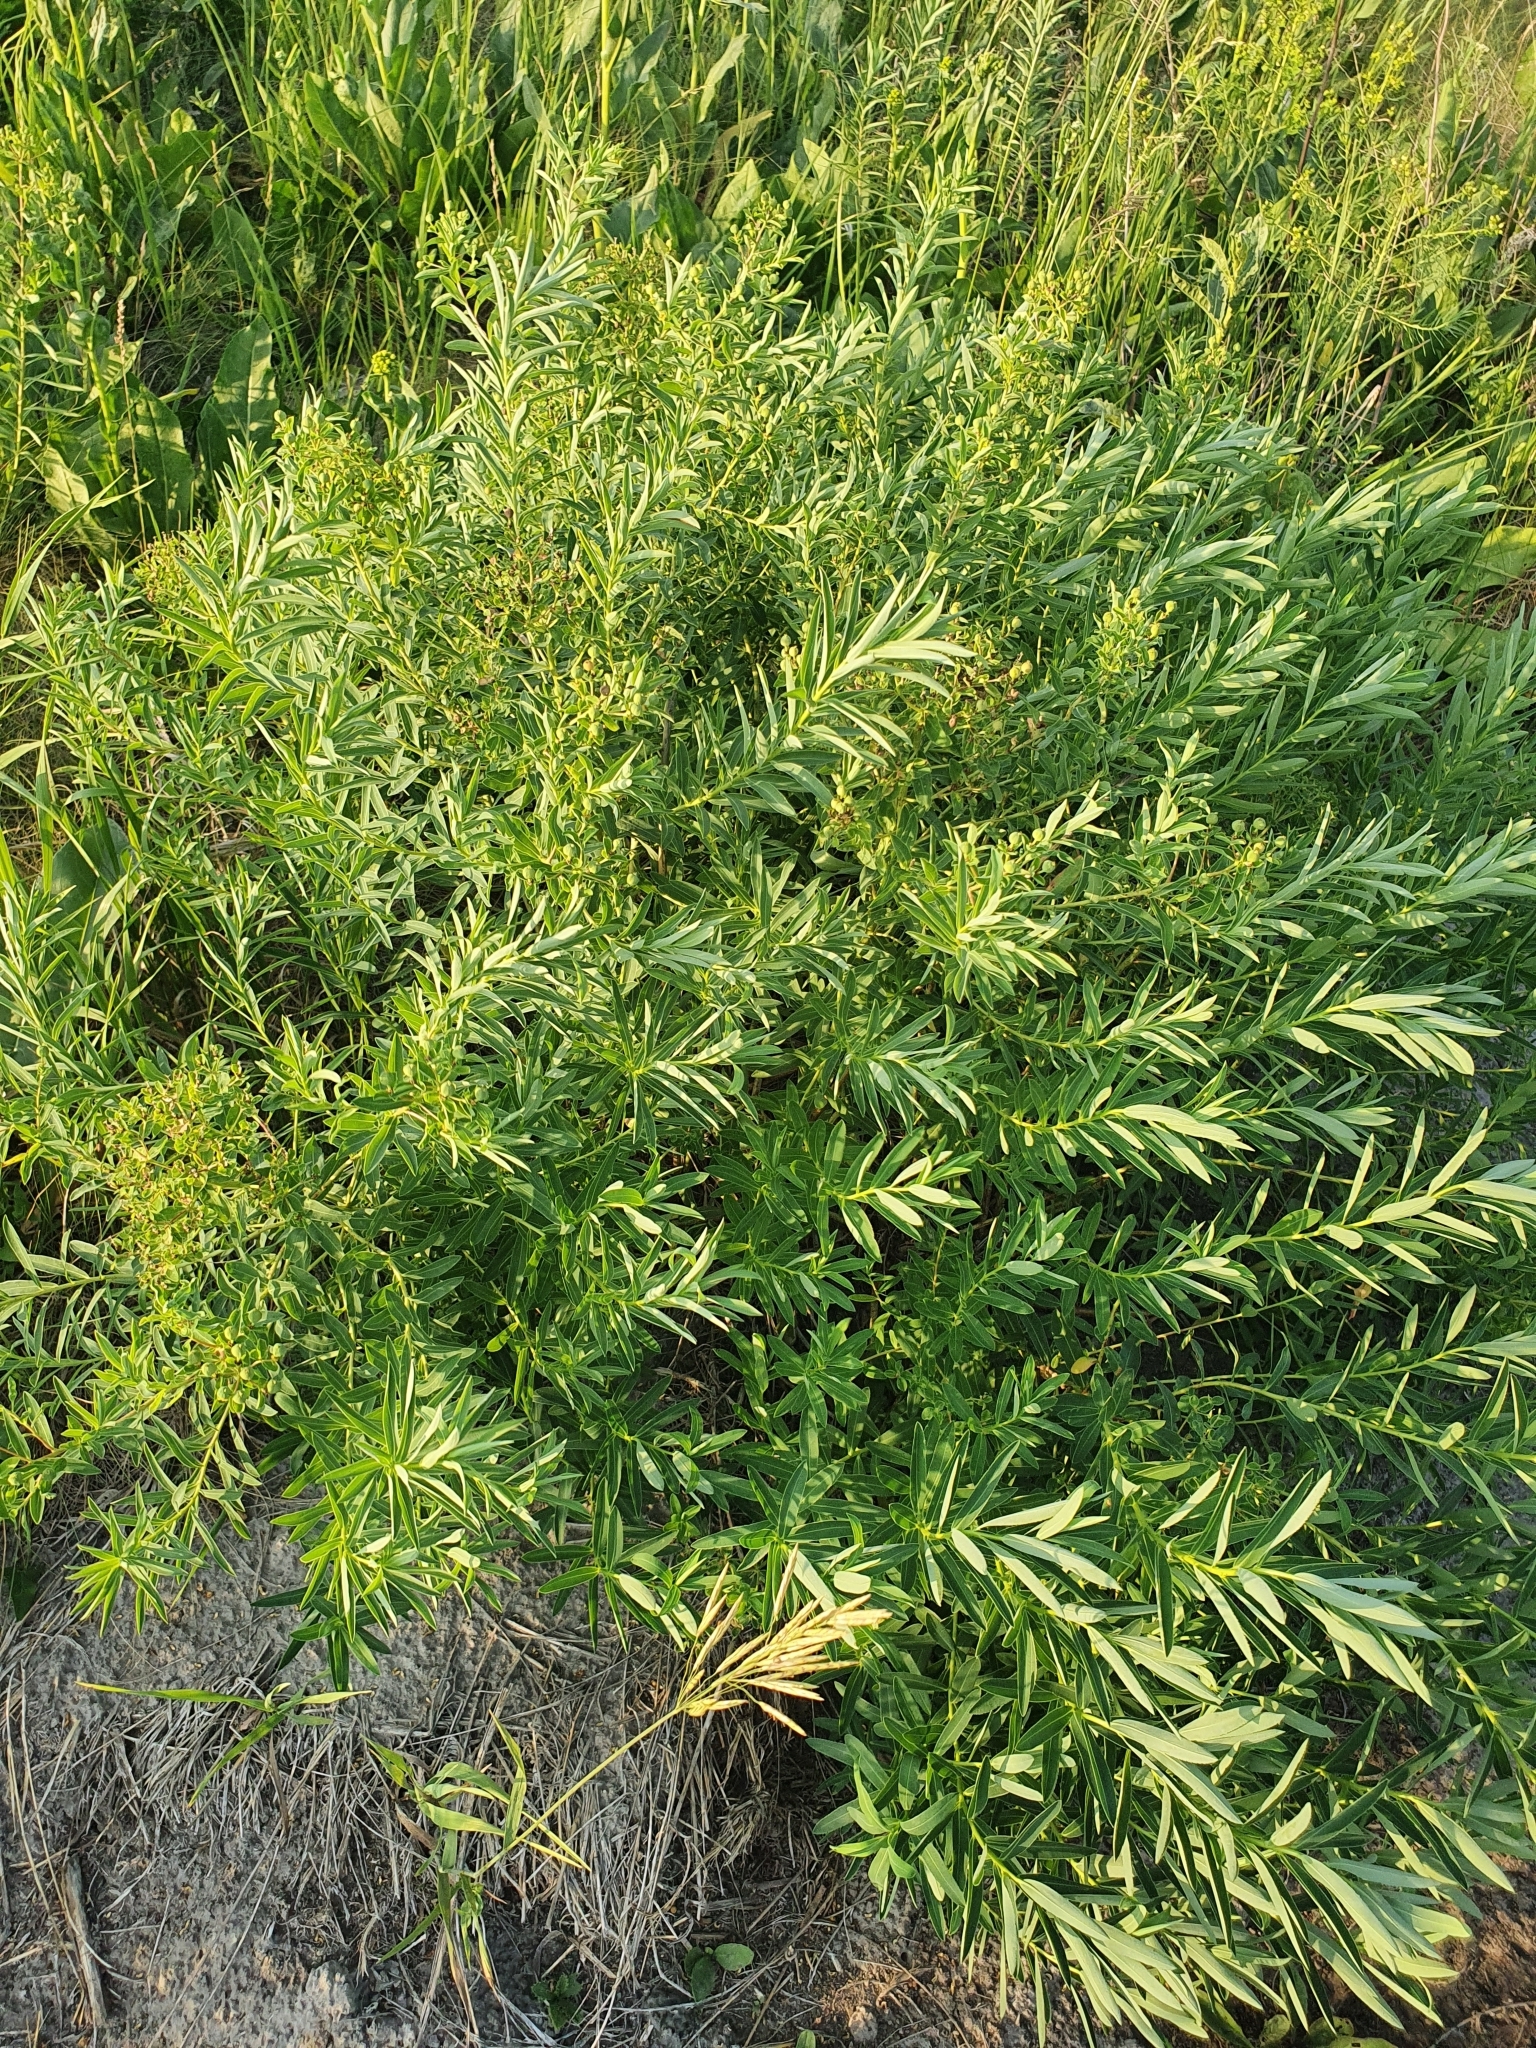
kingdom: Plantae
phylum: Tracheophyta
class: Magnoliopsida
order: Malpighiales
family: Euphorbiaceae
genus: Euphorbia
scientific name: Euphorbia palustris
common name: Marsh spurge
